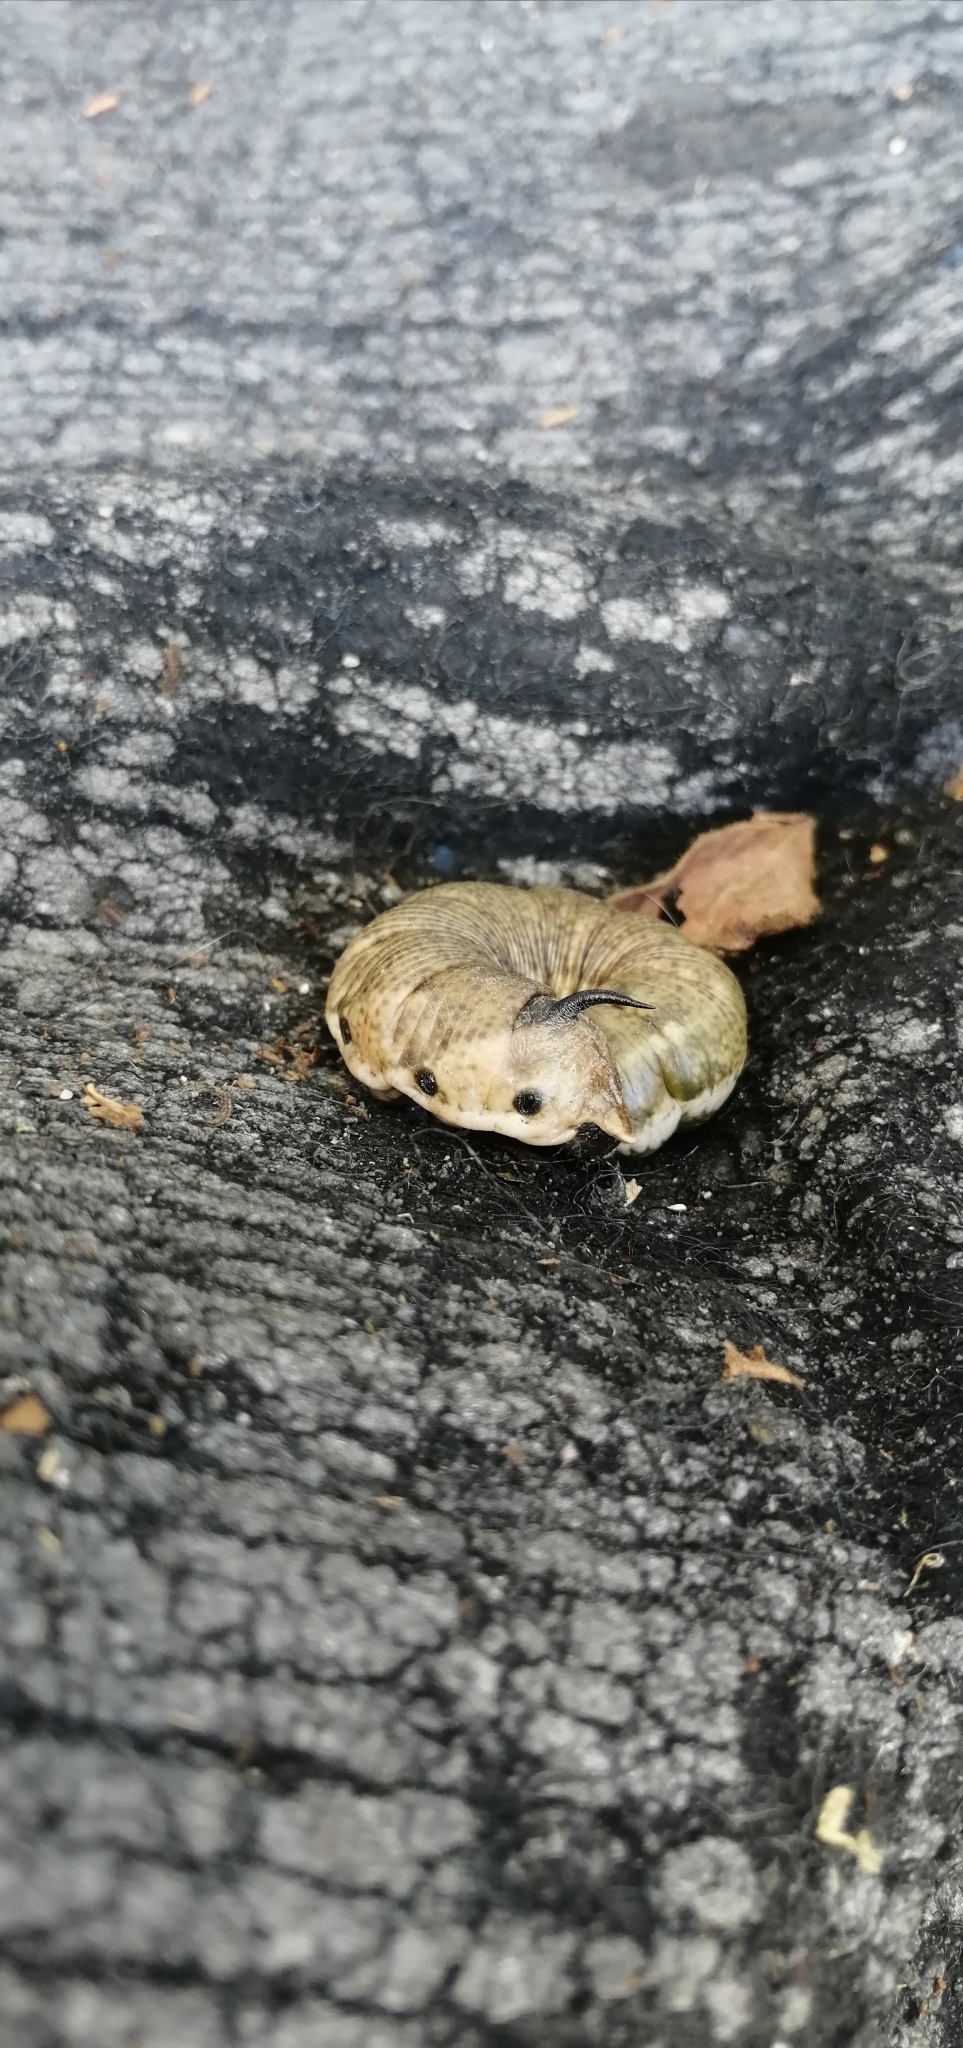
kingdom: Animalia
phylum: Arthropoda
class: Insecta
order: Lepidoptera
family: Sphingidae
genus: Agrius
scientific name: Agrius convolvuli
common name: Convolvulus hawkmoth
